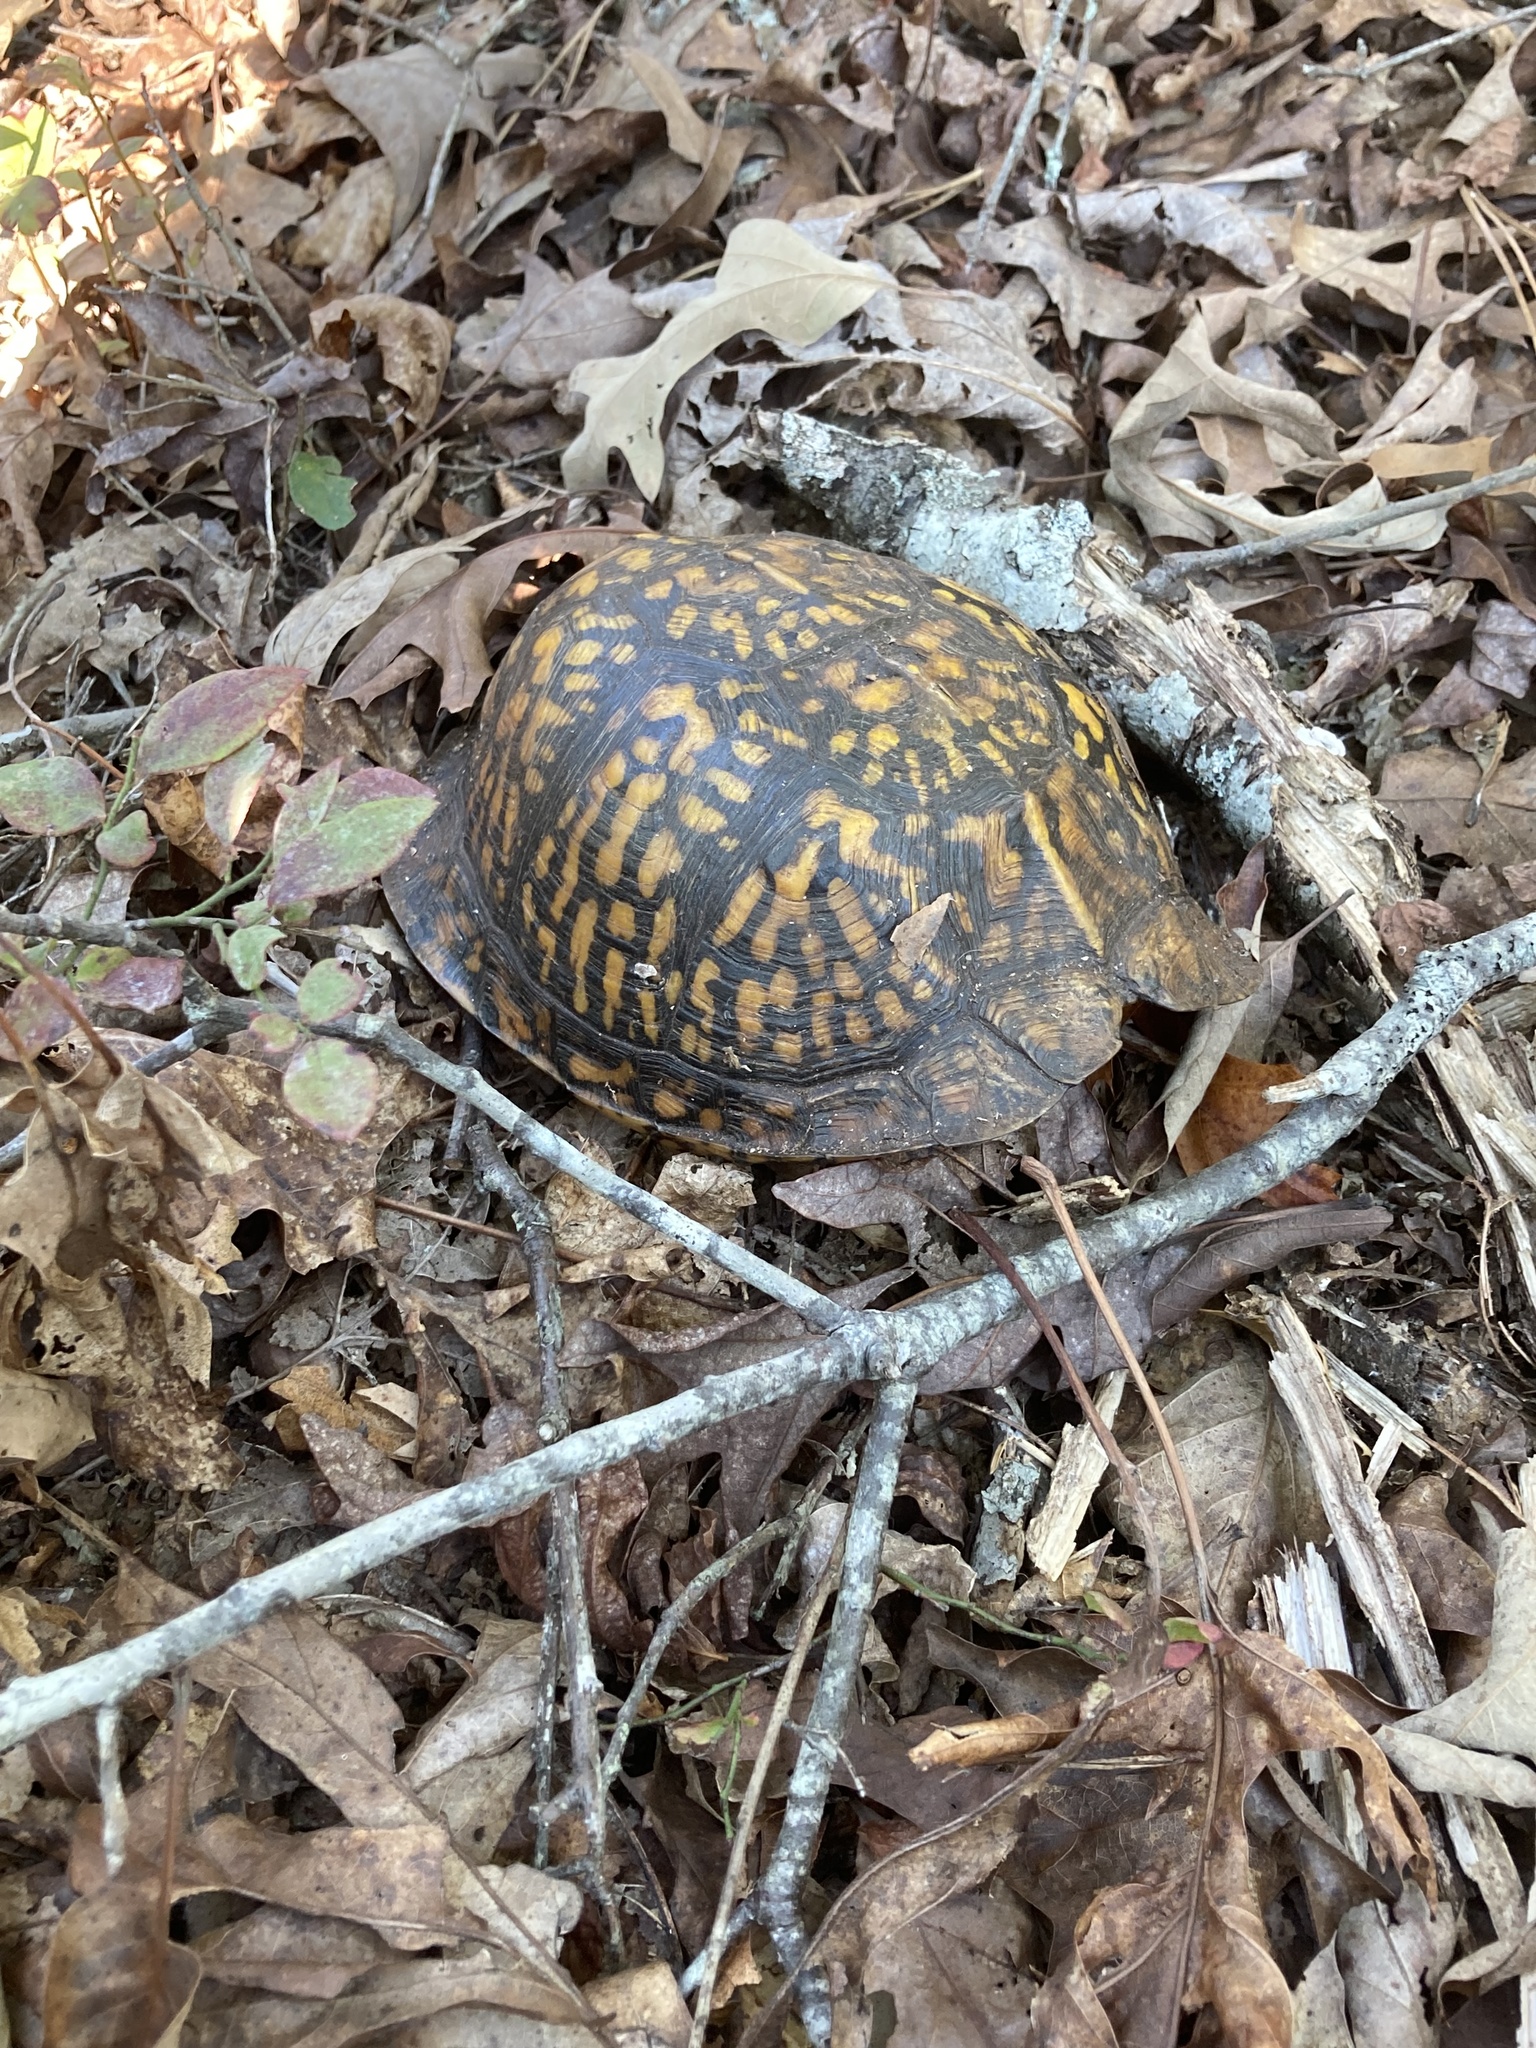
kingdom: Animalia
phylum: Chordata
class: Testudines
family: Emydidae
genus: Terrapene
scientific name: Terrapene carolina
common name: Common box turtle
